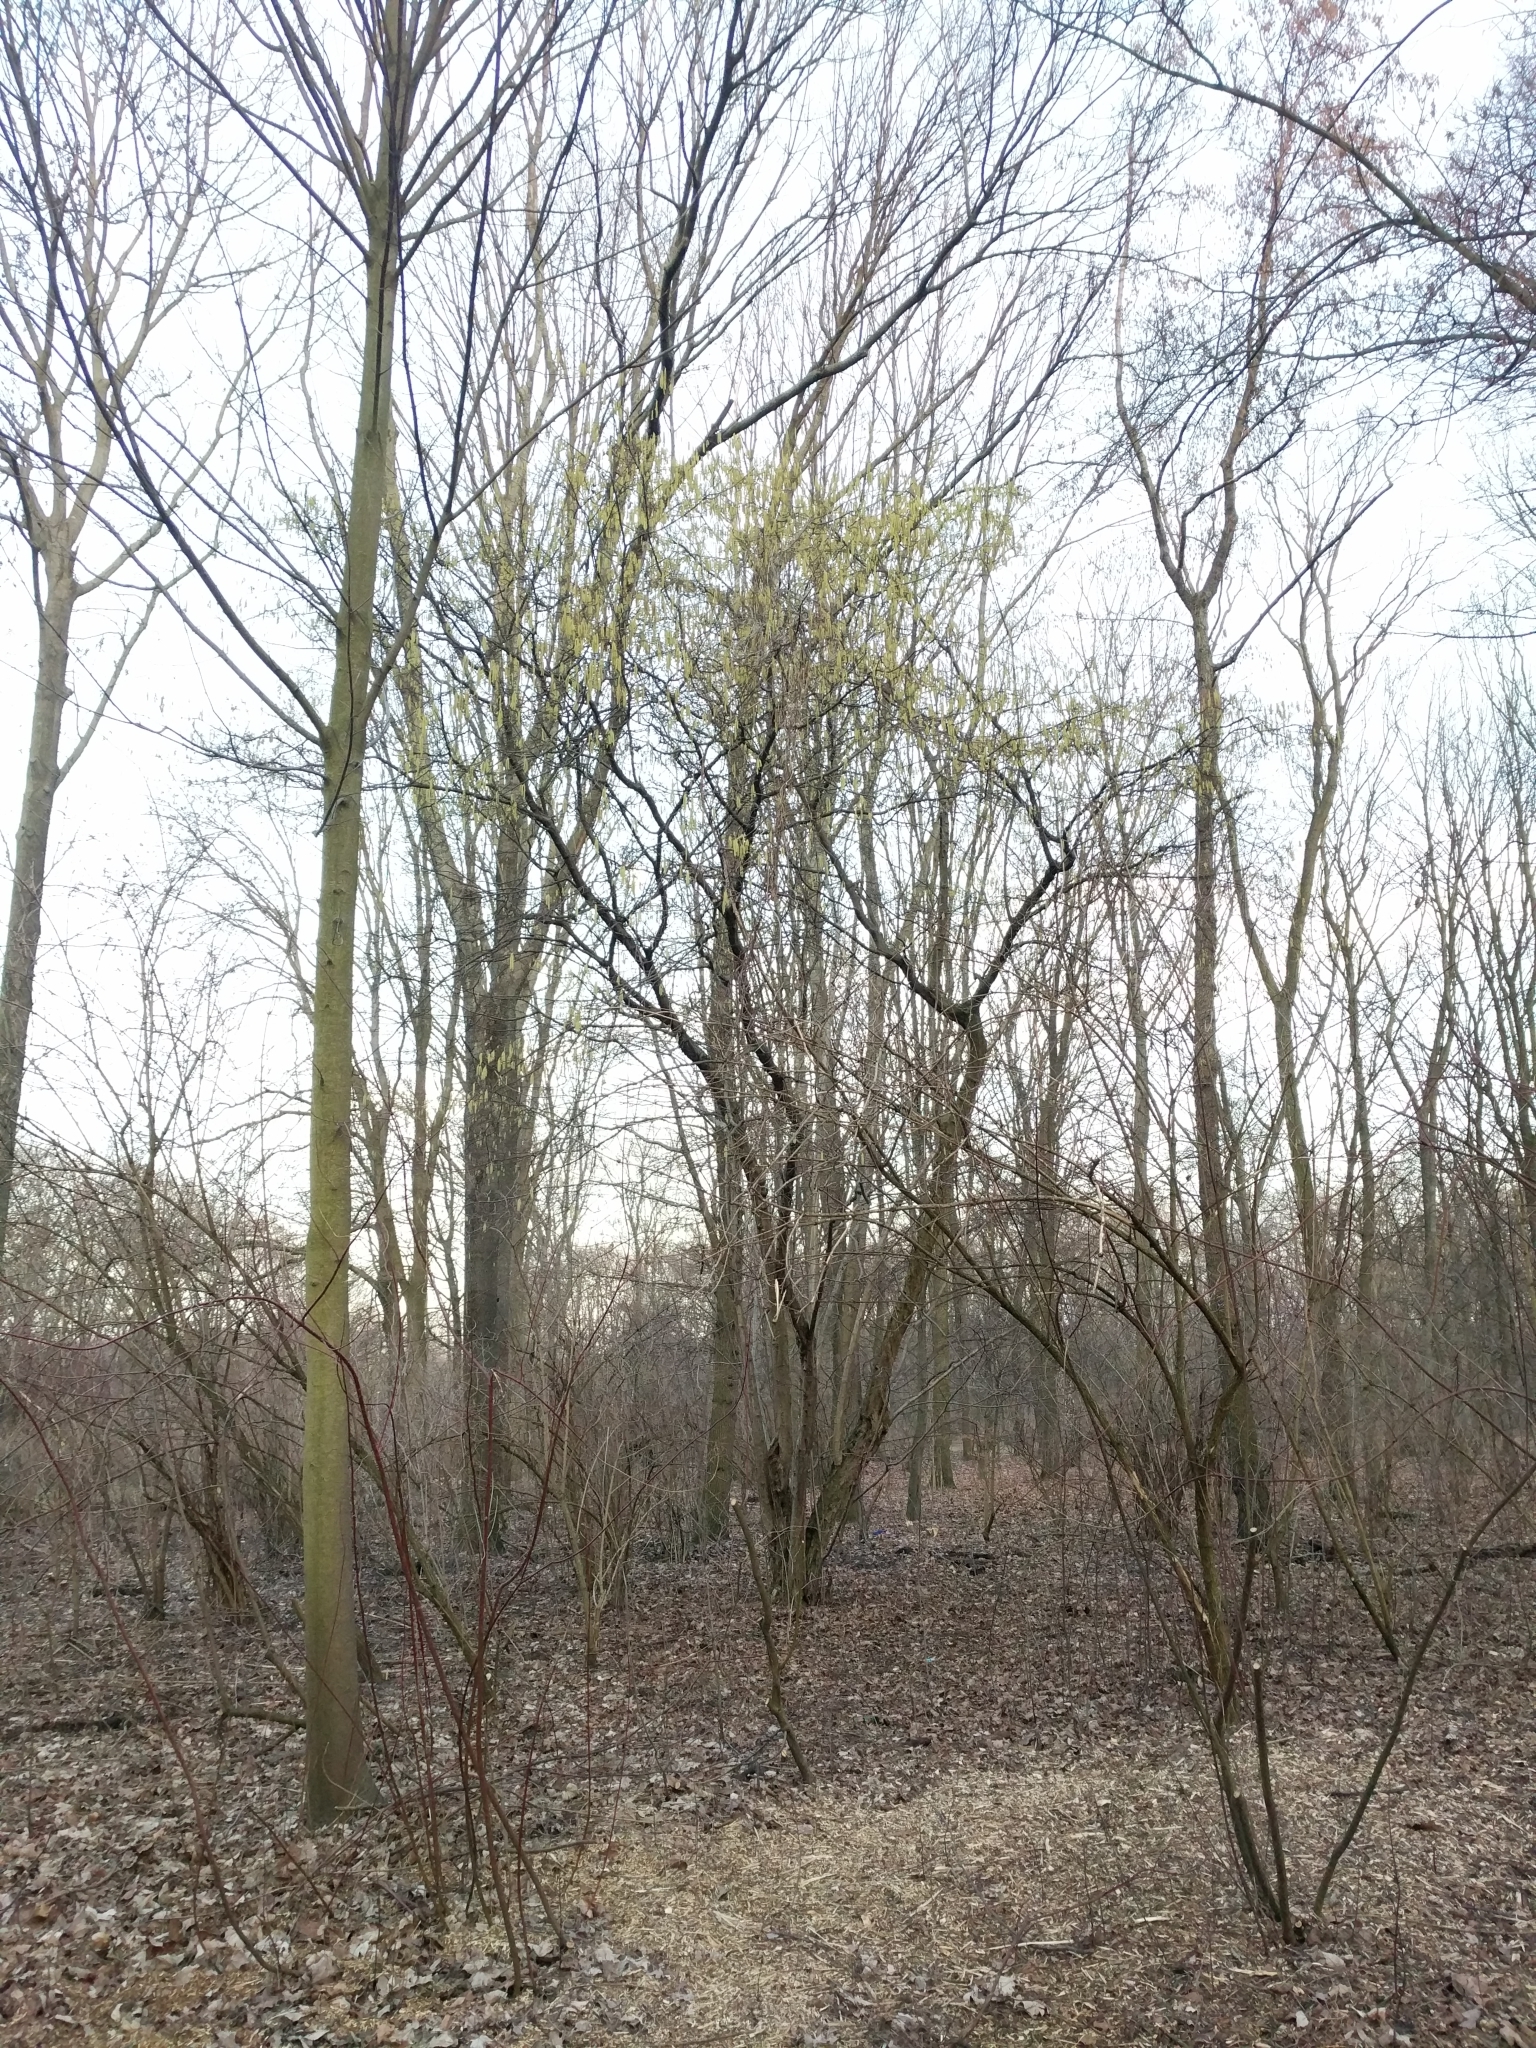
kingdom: Plantae
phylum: Tracheophyta
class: Magnoliopsida
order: Fagales
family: Betulaceae
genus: Corylus
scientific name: Corylus avellana
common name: European hazel
